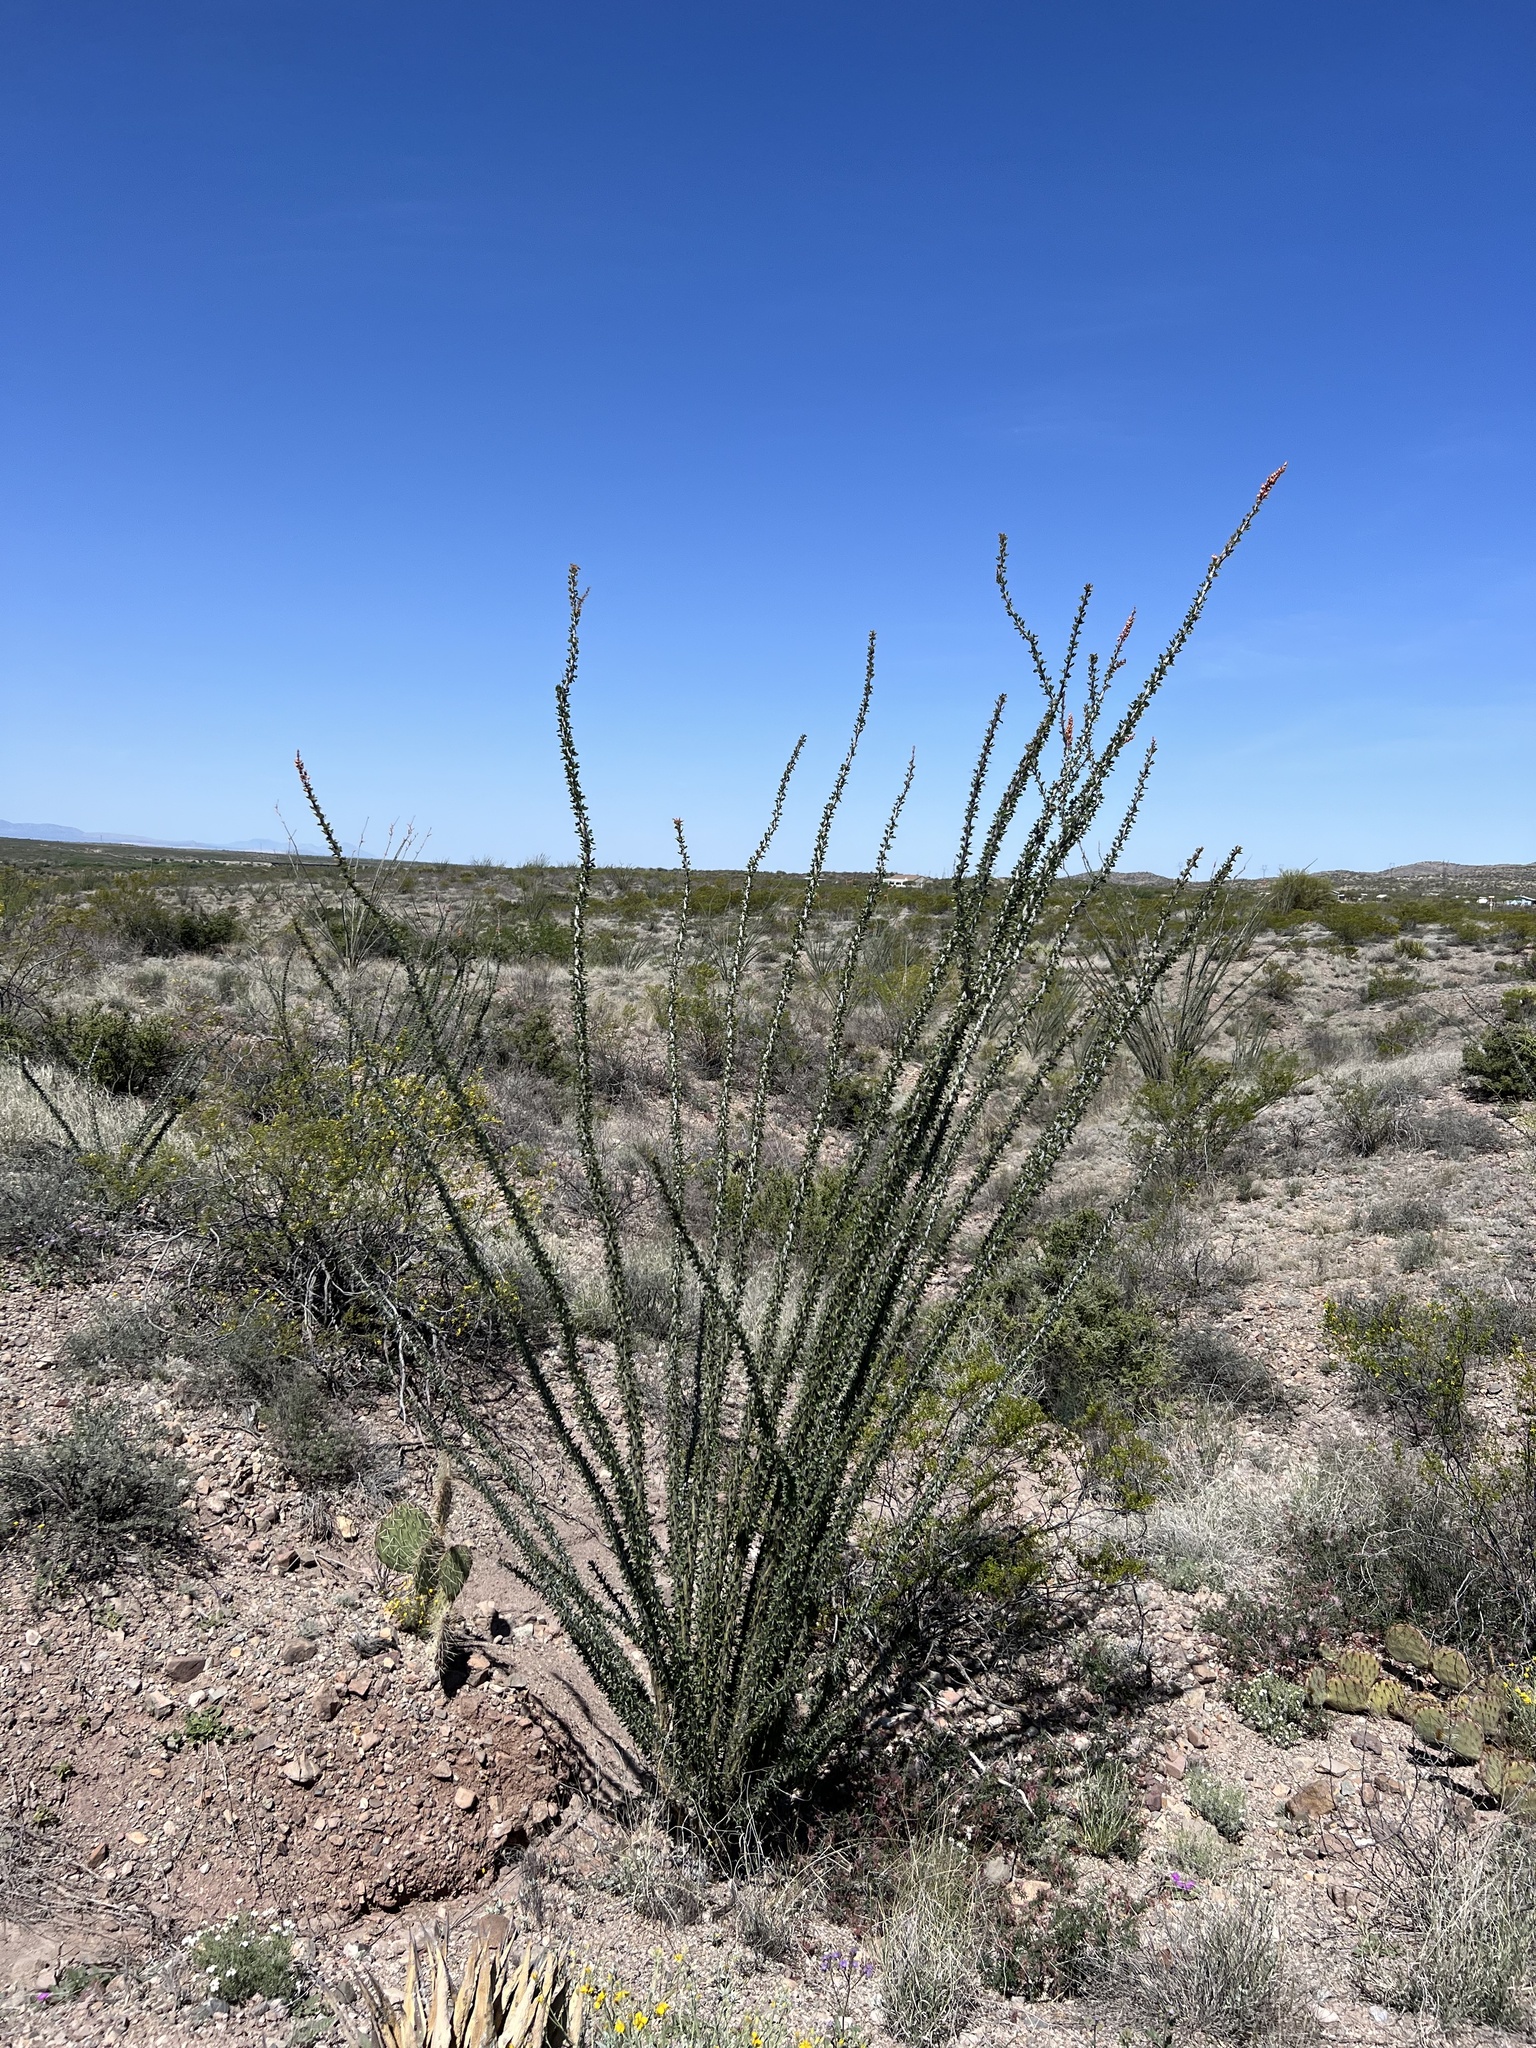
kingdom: Plantae
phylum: Tracheophyta
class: Magnoliopsida
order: Ericales
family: Fouquieriaceae
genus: Fouquieria
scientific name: Fouquieria splendens
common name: Vine-cactus
